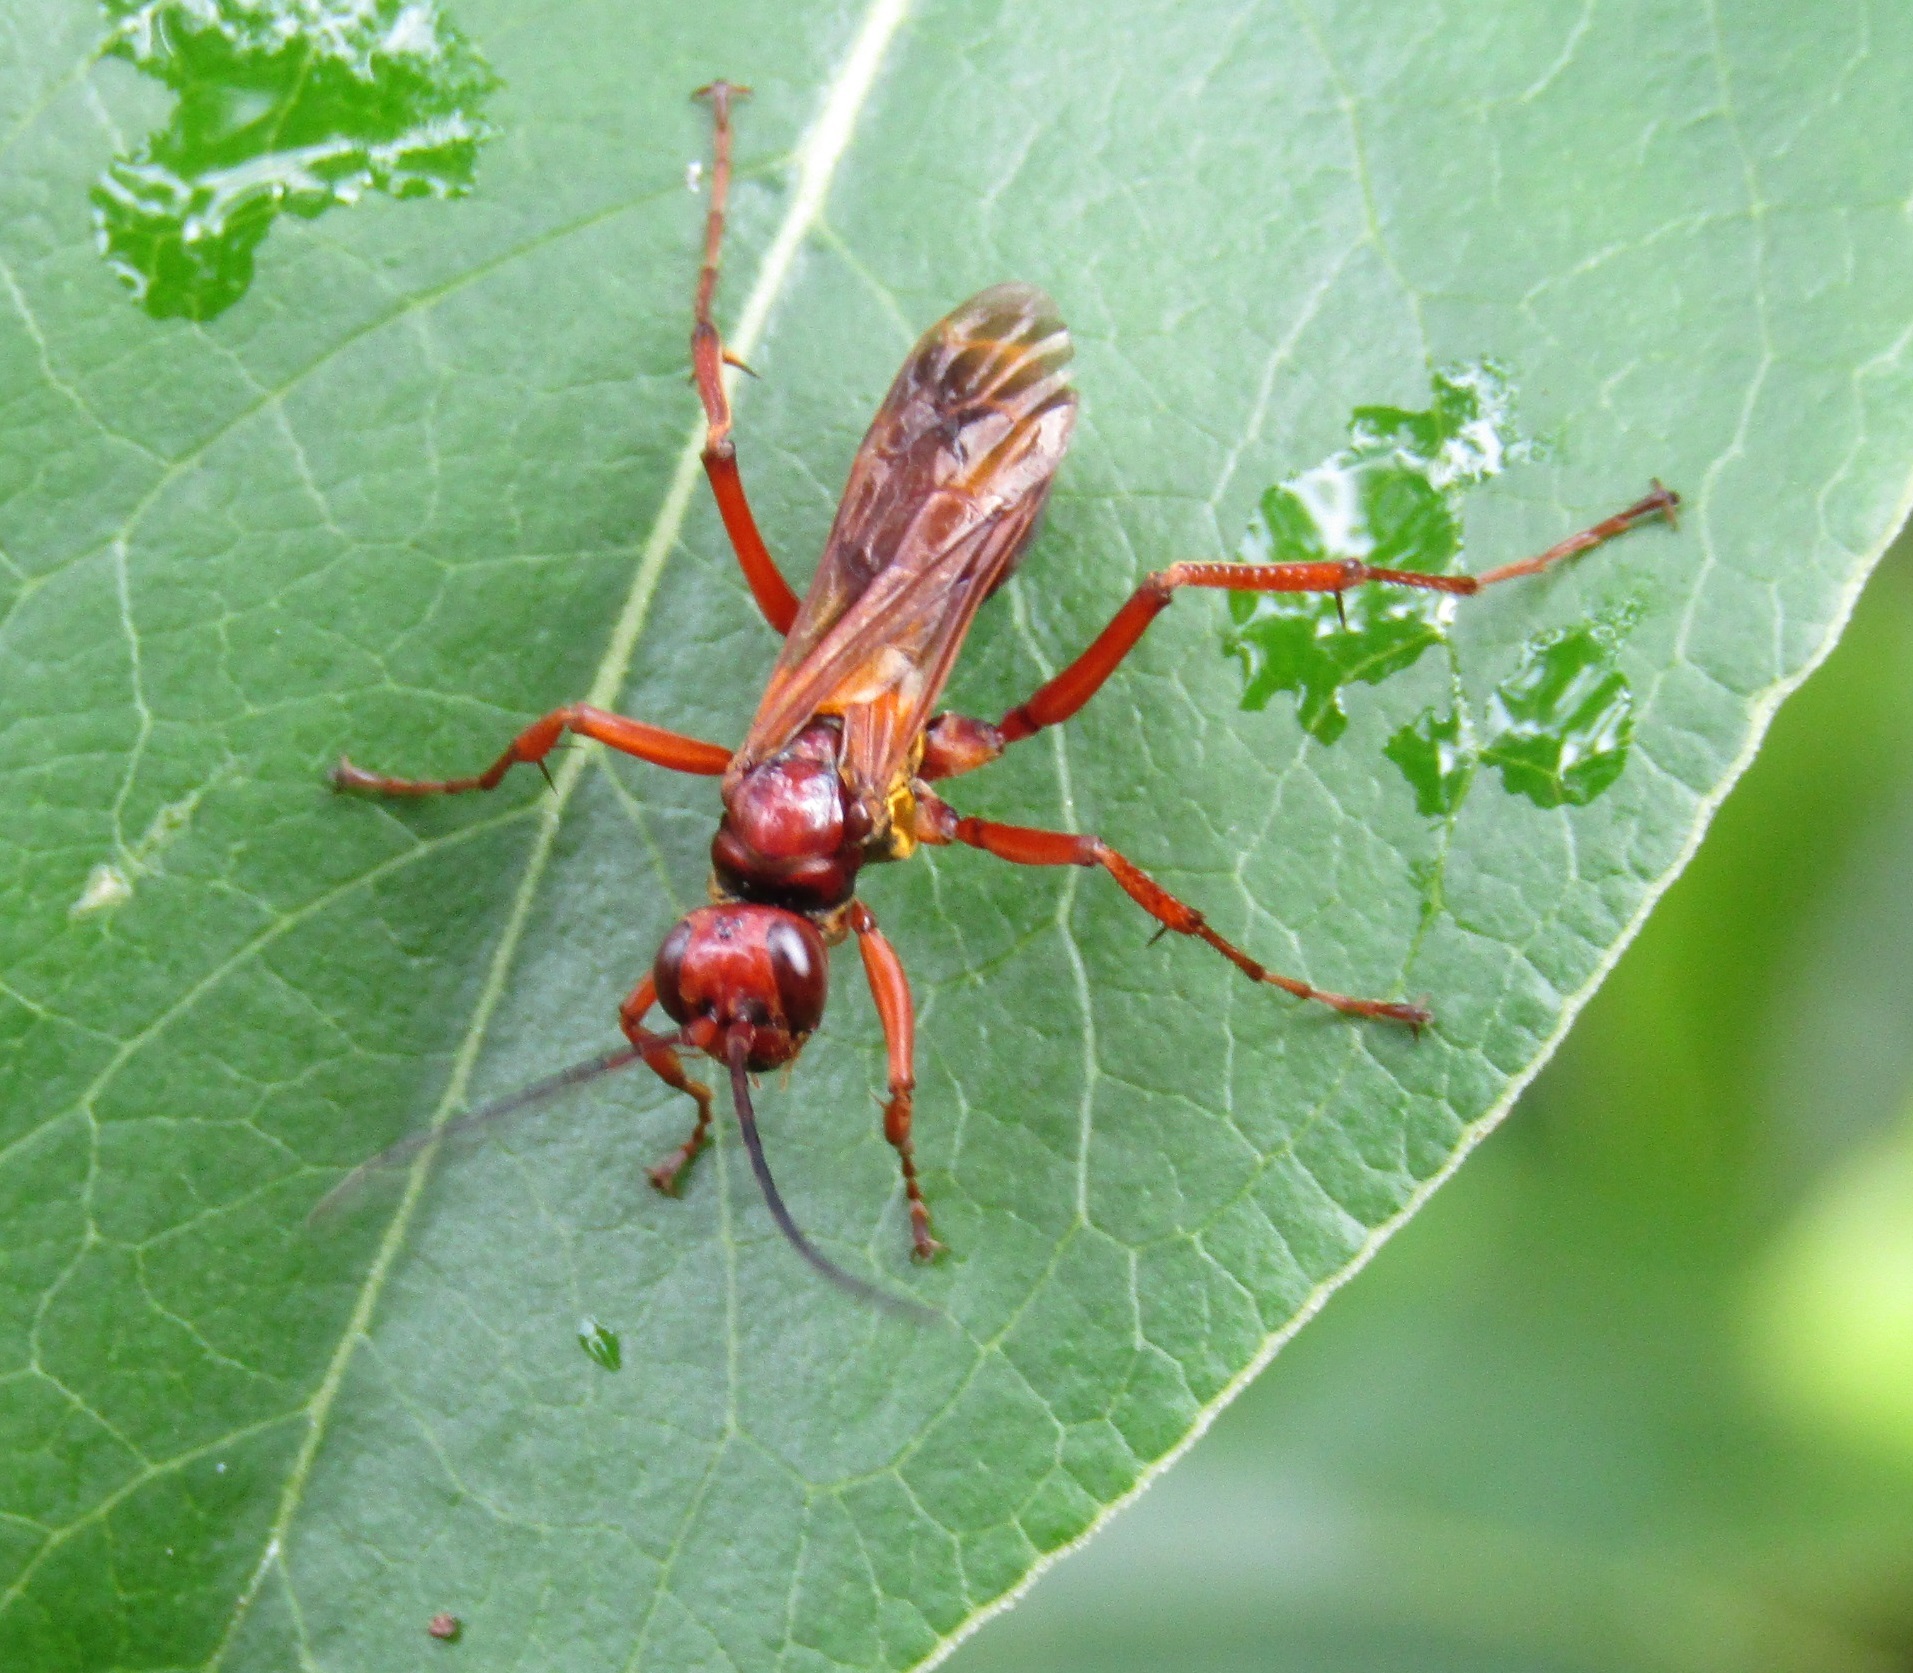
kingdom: Animalia
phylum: Arthropoda
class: Insecta
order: Hymenoptera
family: Pompilidae
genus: Sphictostethus
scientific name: Sphictostethus nitidus
